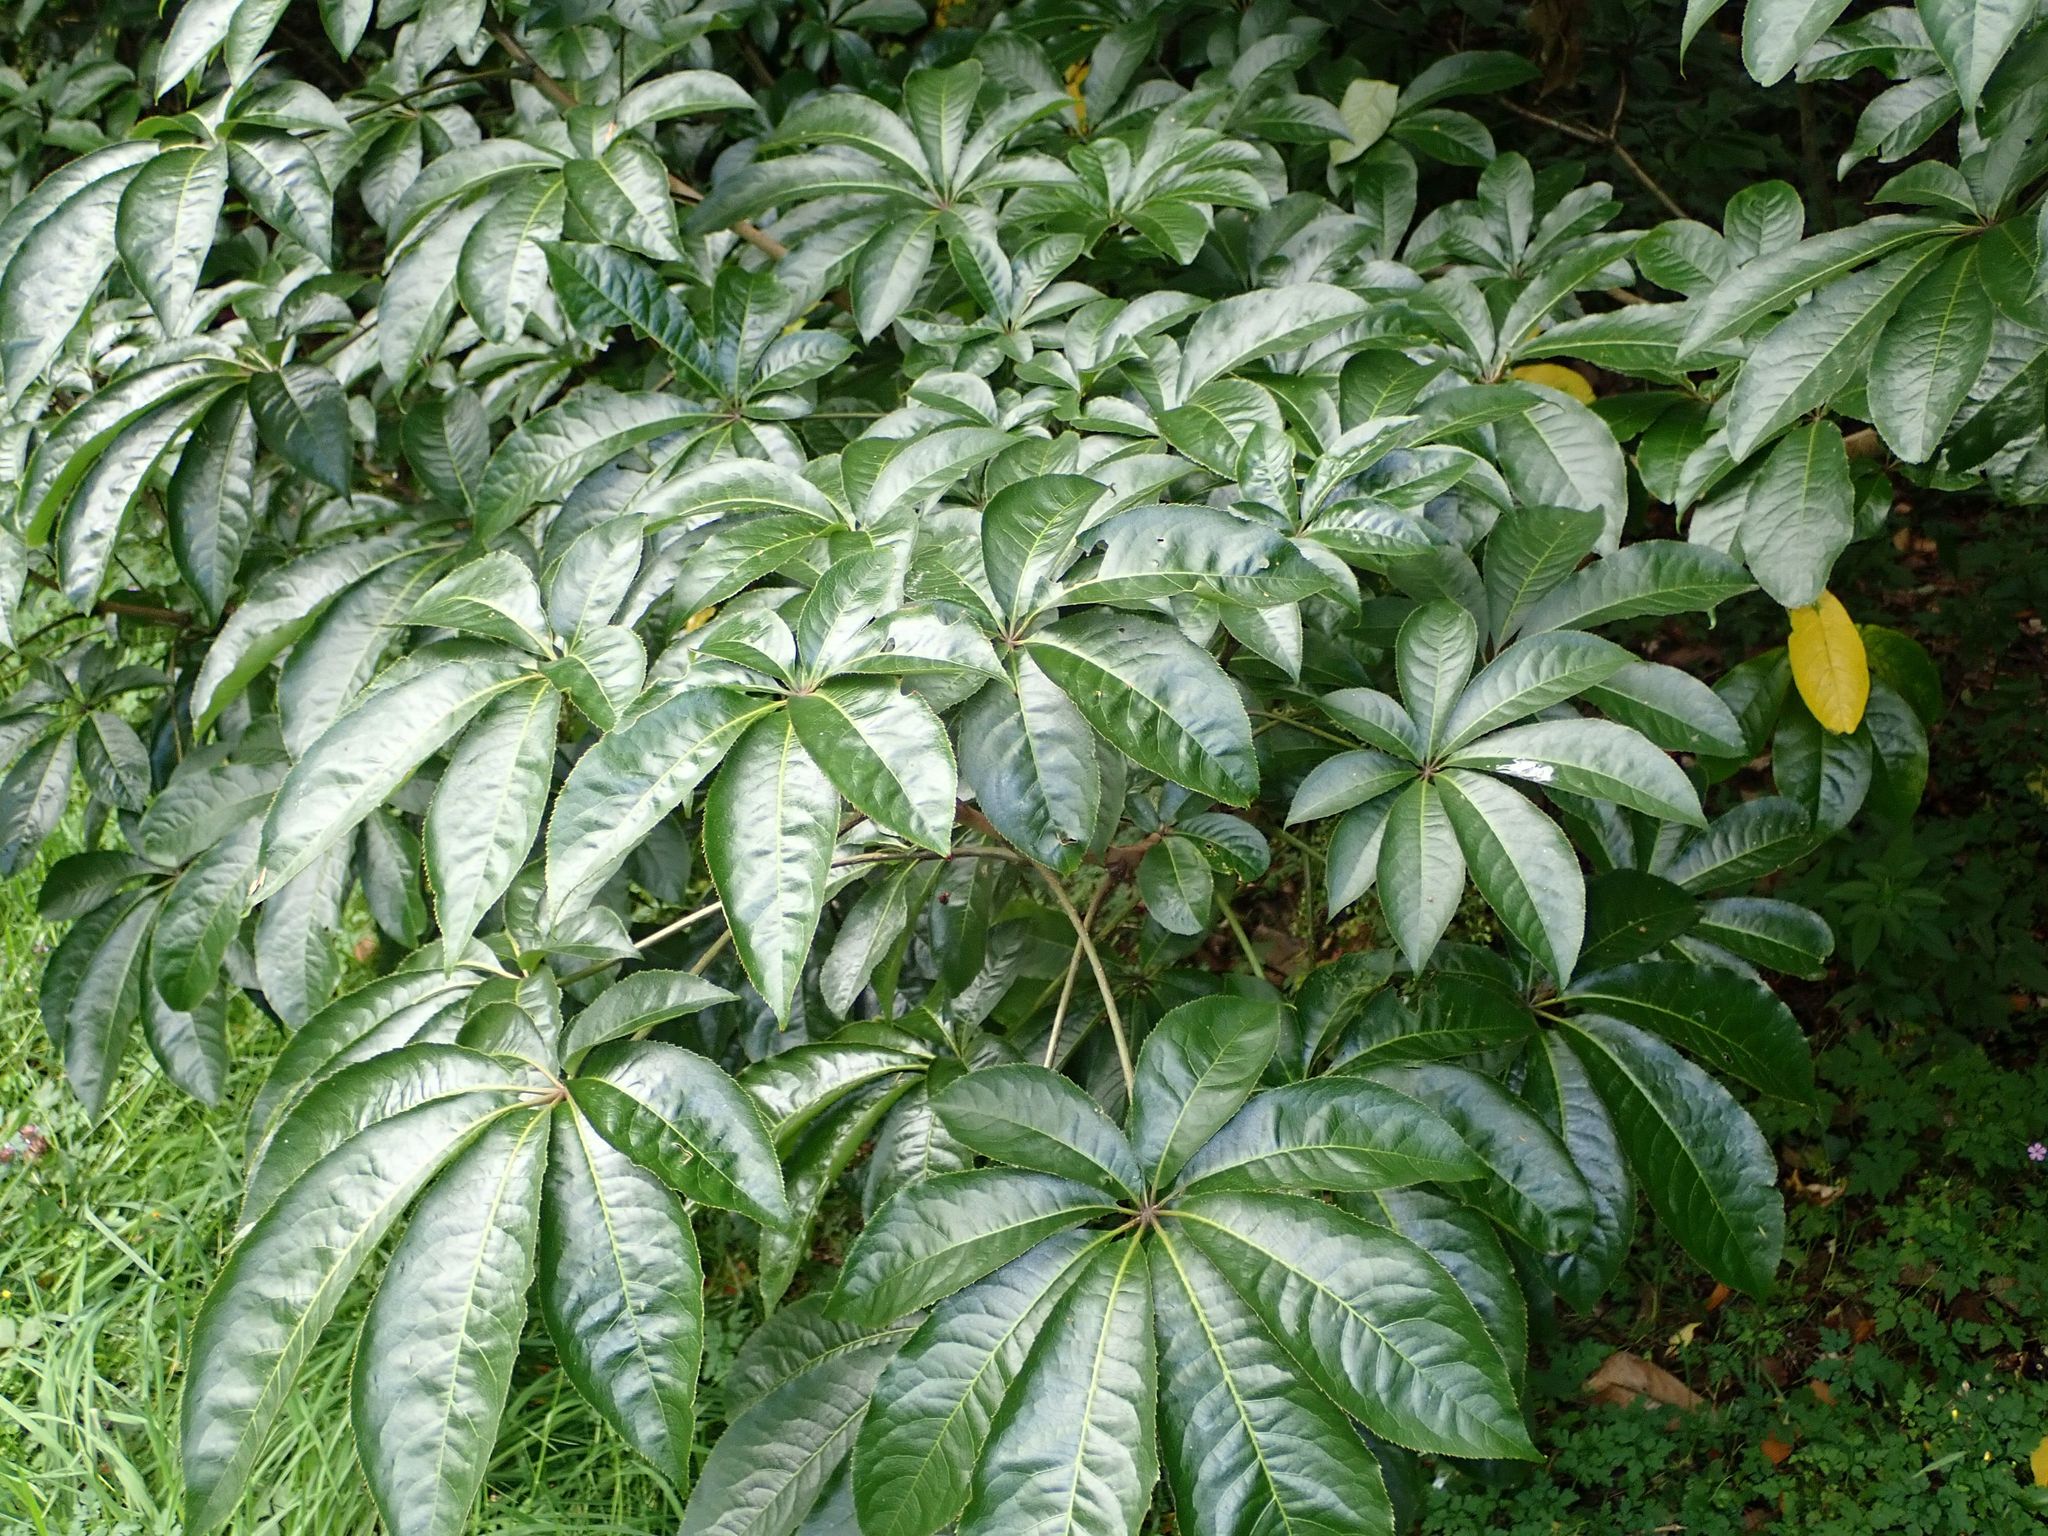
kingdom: Plantae
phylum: Tracheophyta
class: Magnoliopsida
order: Apiales
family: Araliaceae
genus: Schefflera
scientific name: Schefflera digitata
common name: Pate
